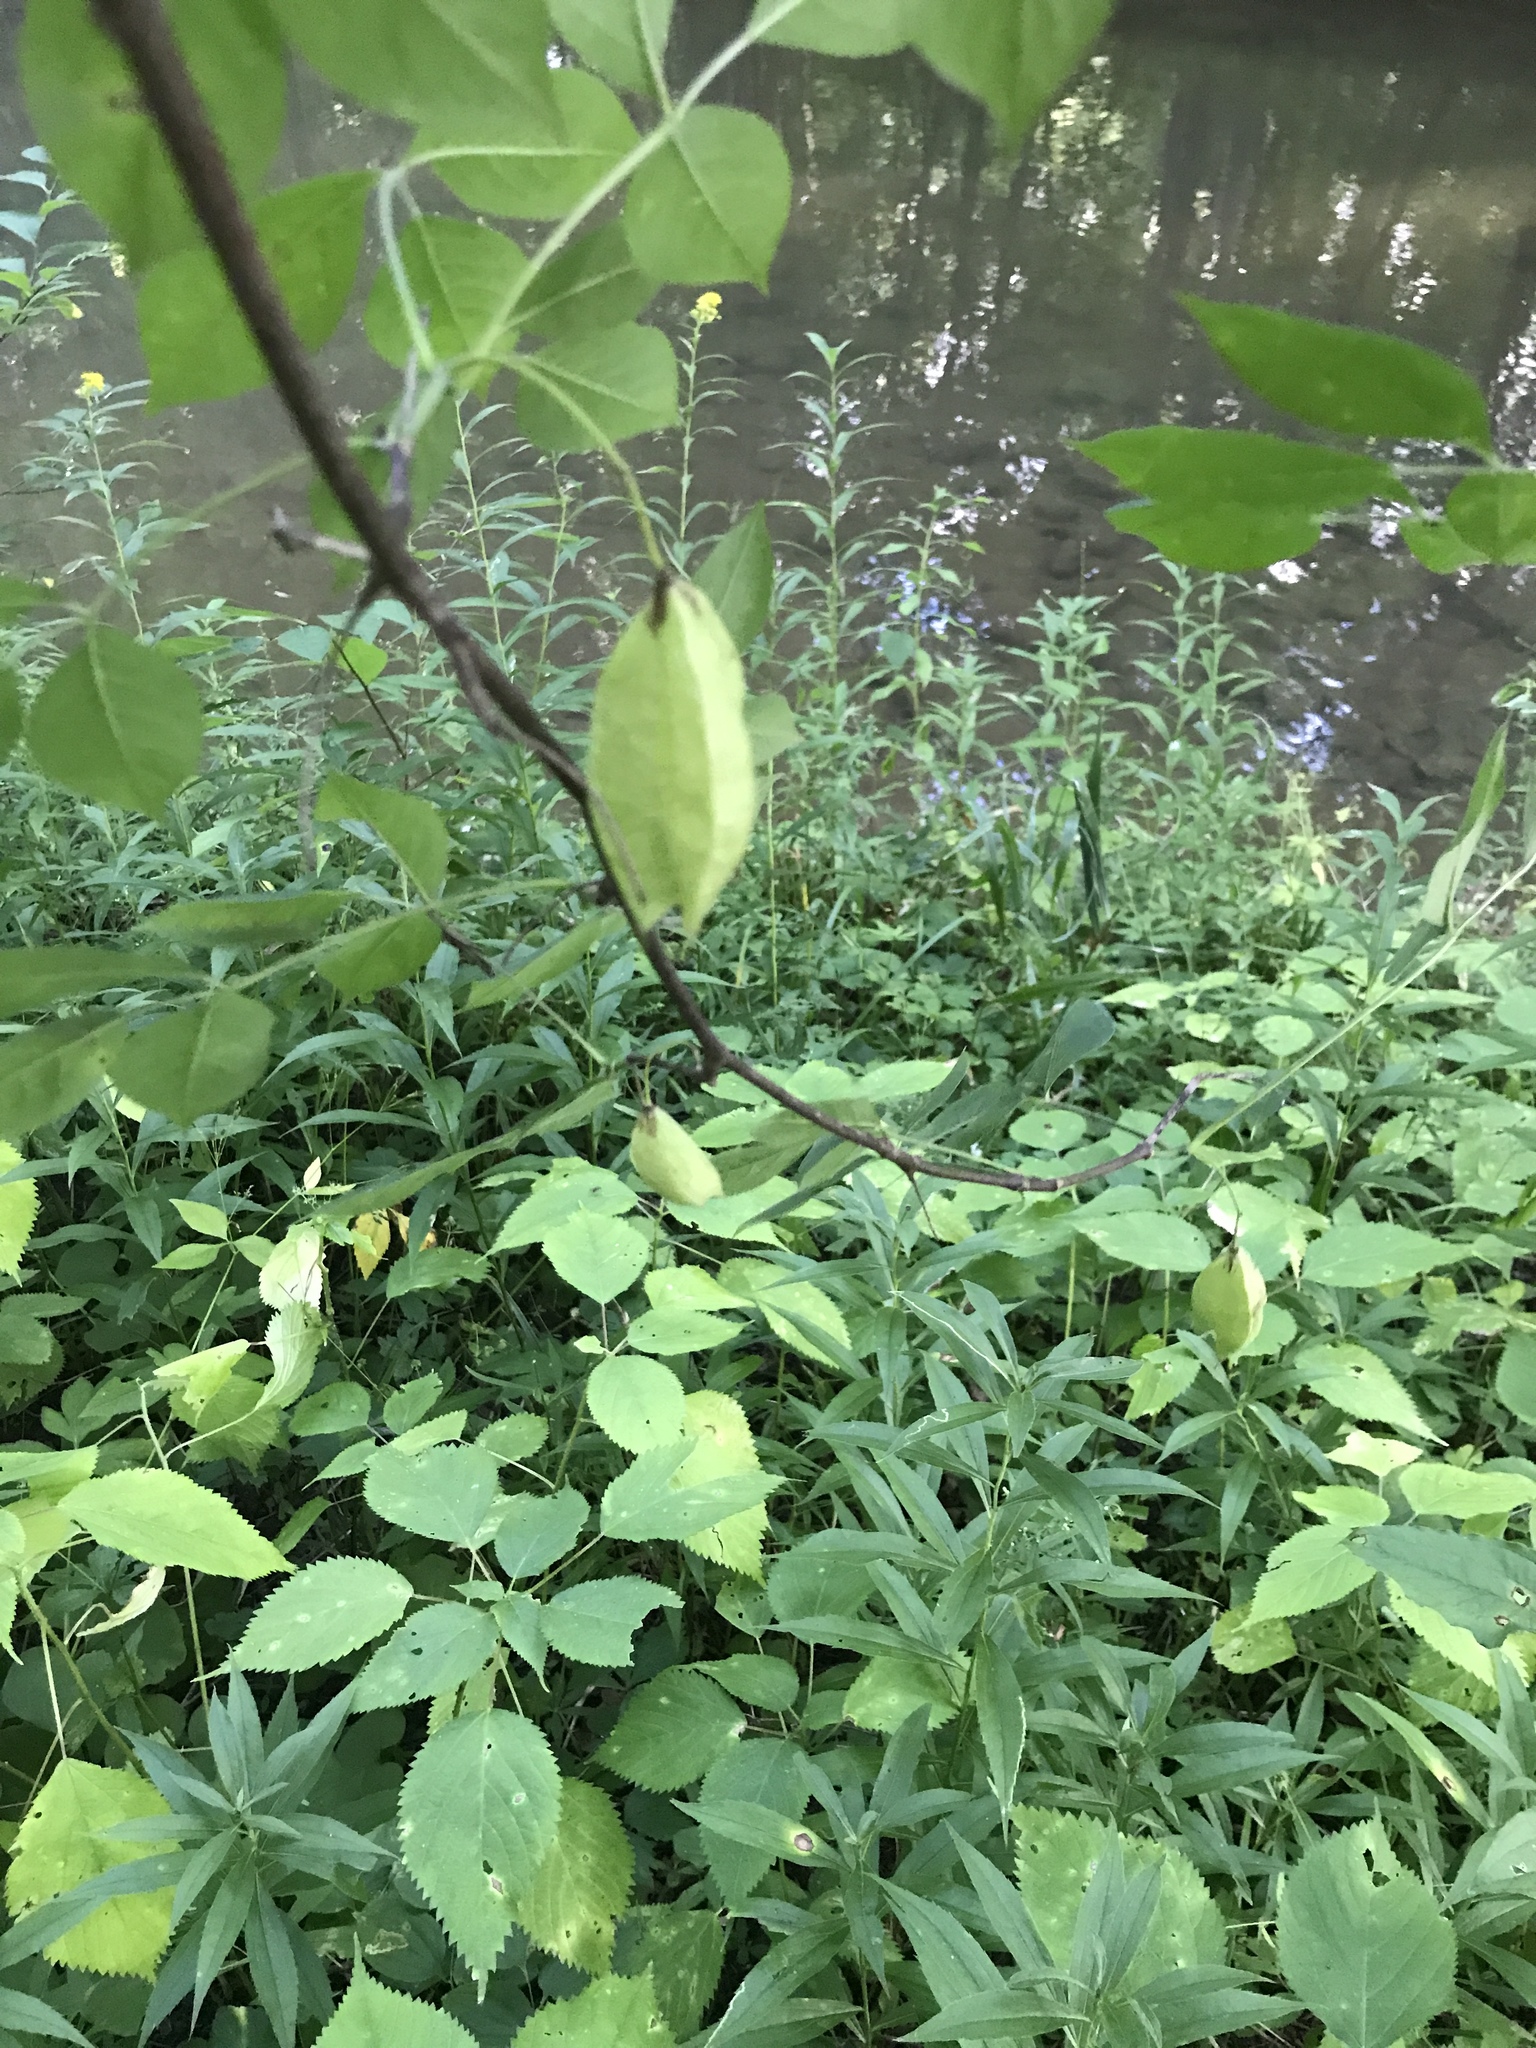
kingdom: Plantae
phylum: Tracheophyta
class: Magnoliopsida
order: Crossosomatales
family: Staphyleaceae
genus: Staphylea
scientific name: Staphylea trifolia
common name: American bladdernut
